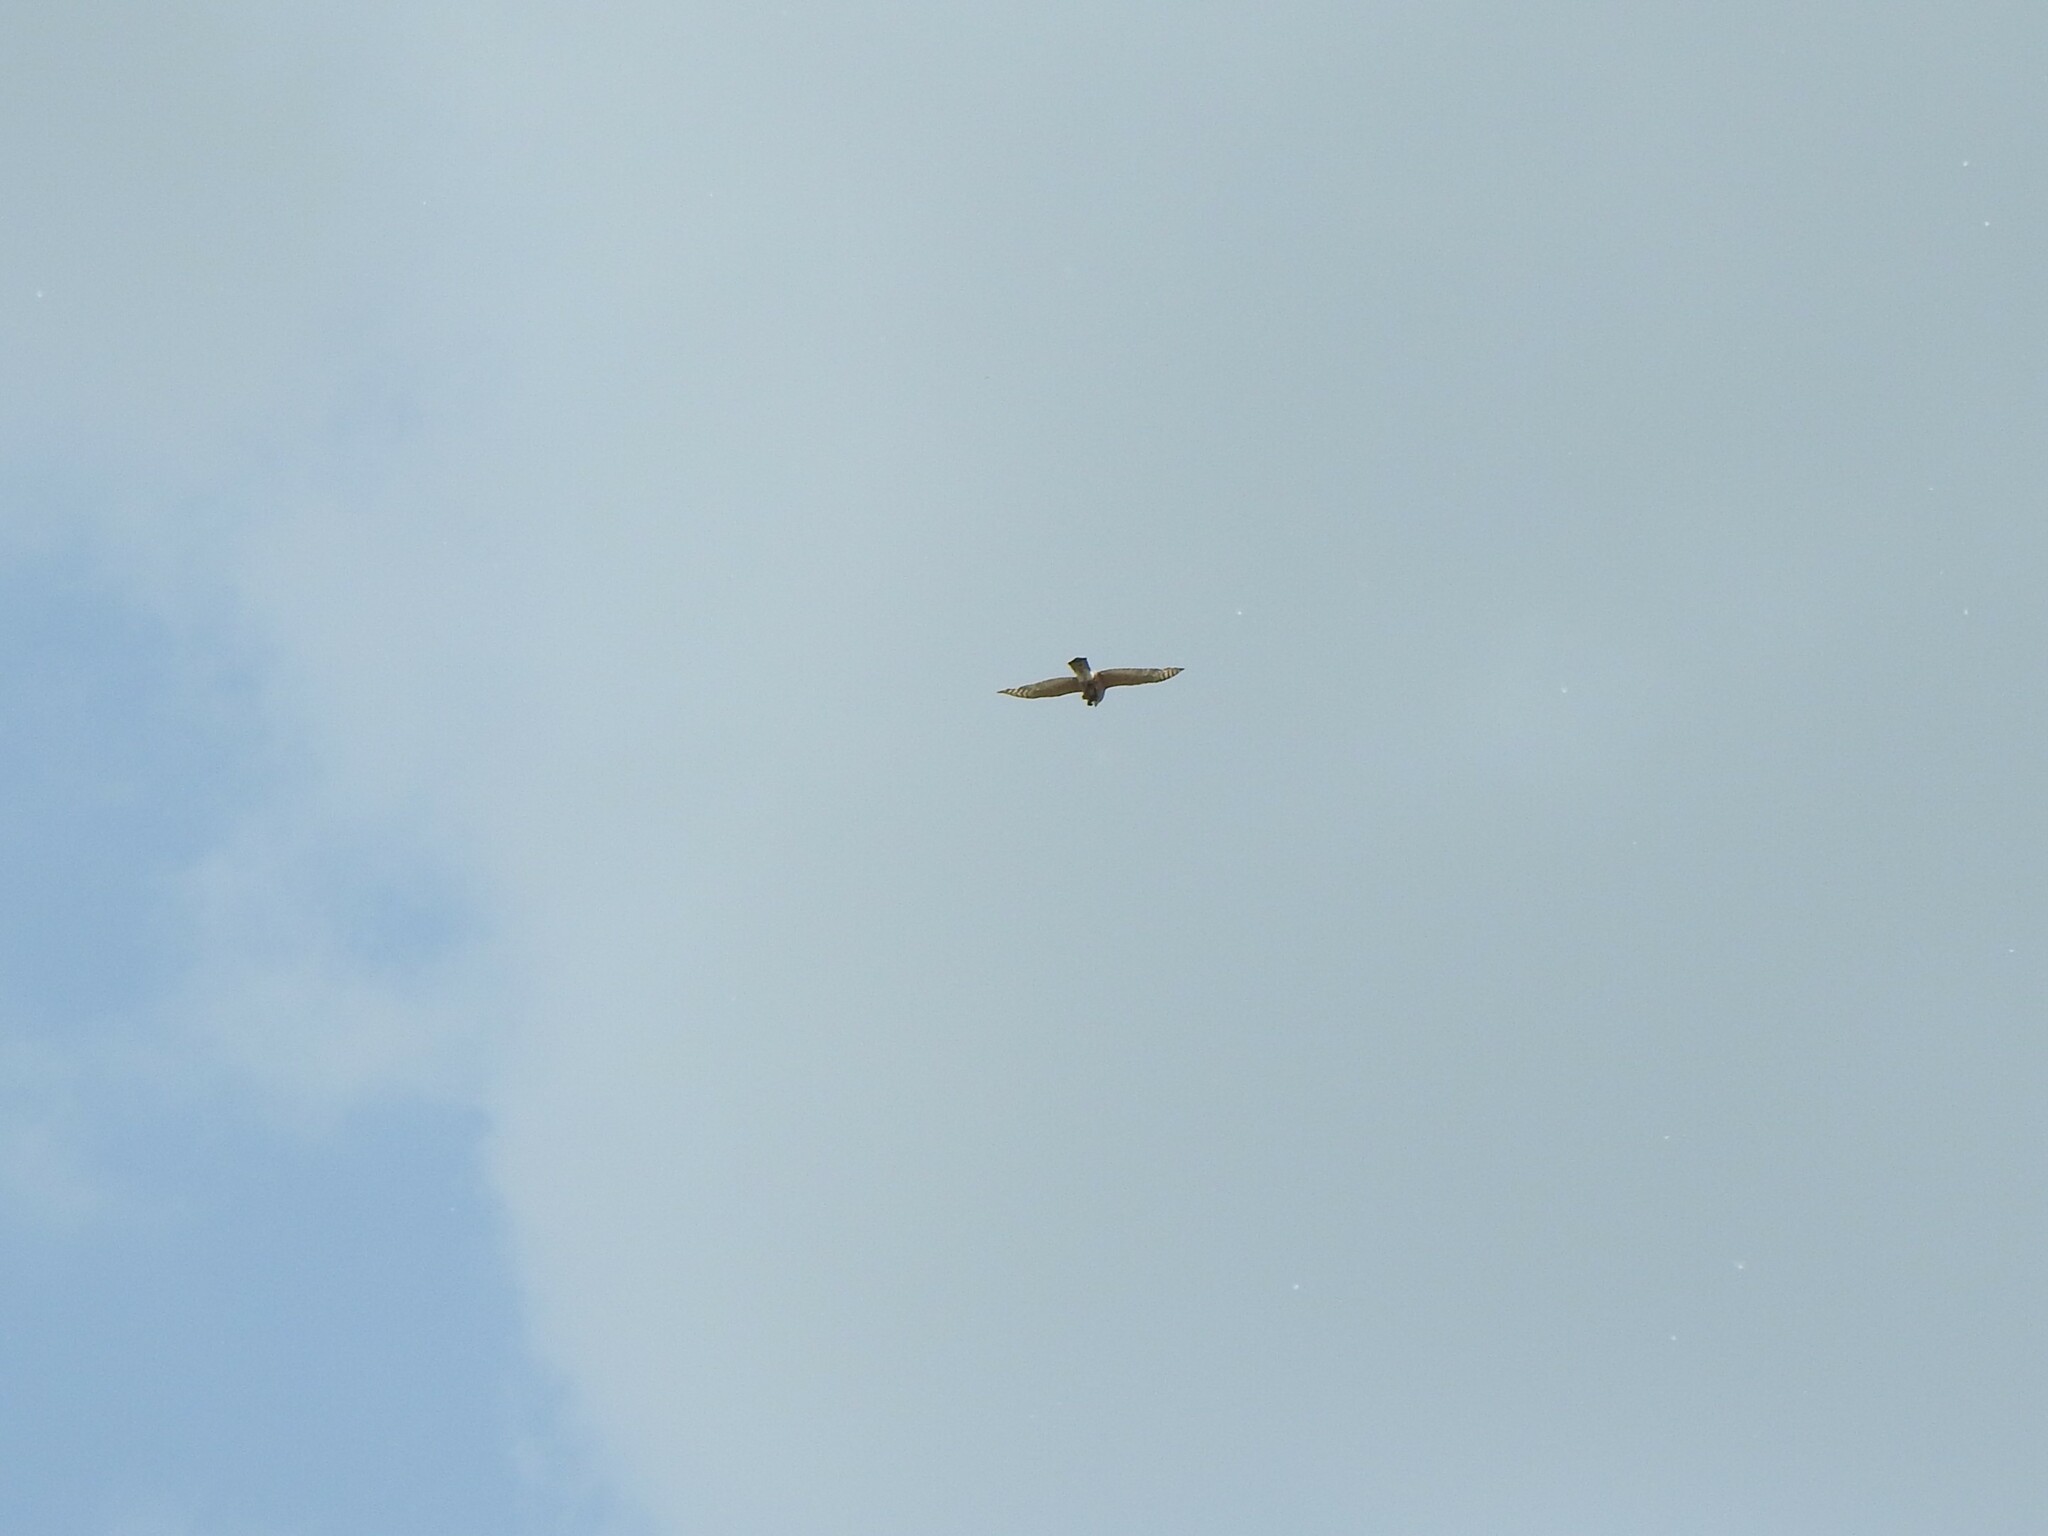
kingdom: Animalia
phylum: Chordata
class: Aves
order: Accipitriformes
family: Accipitridae
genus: Accipiter
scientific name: Accipiter cooperii
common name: Cooper's hawk
